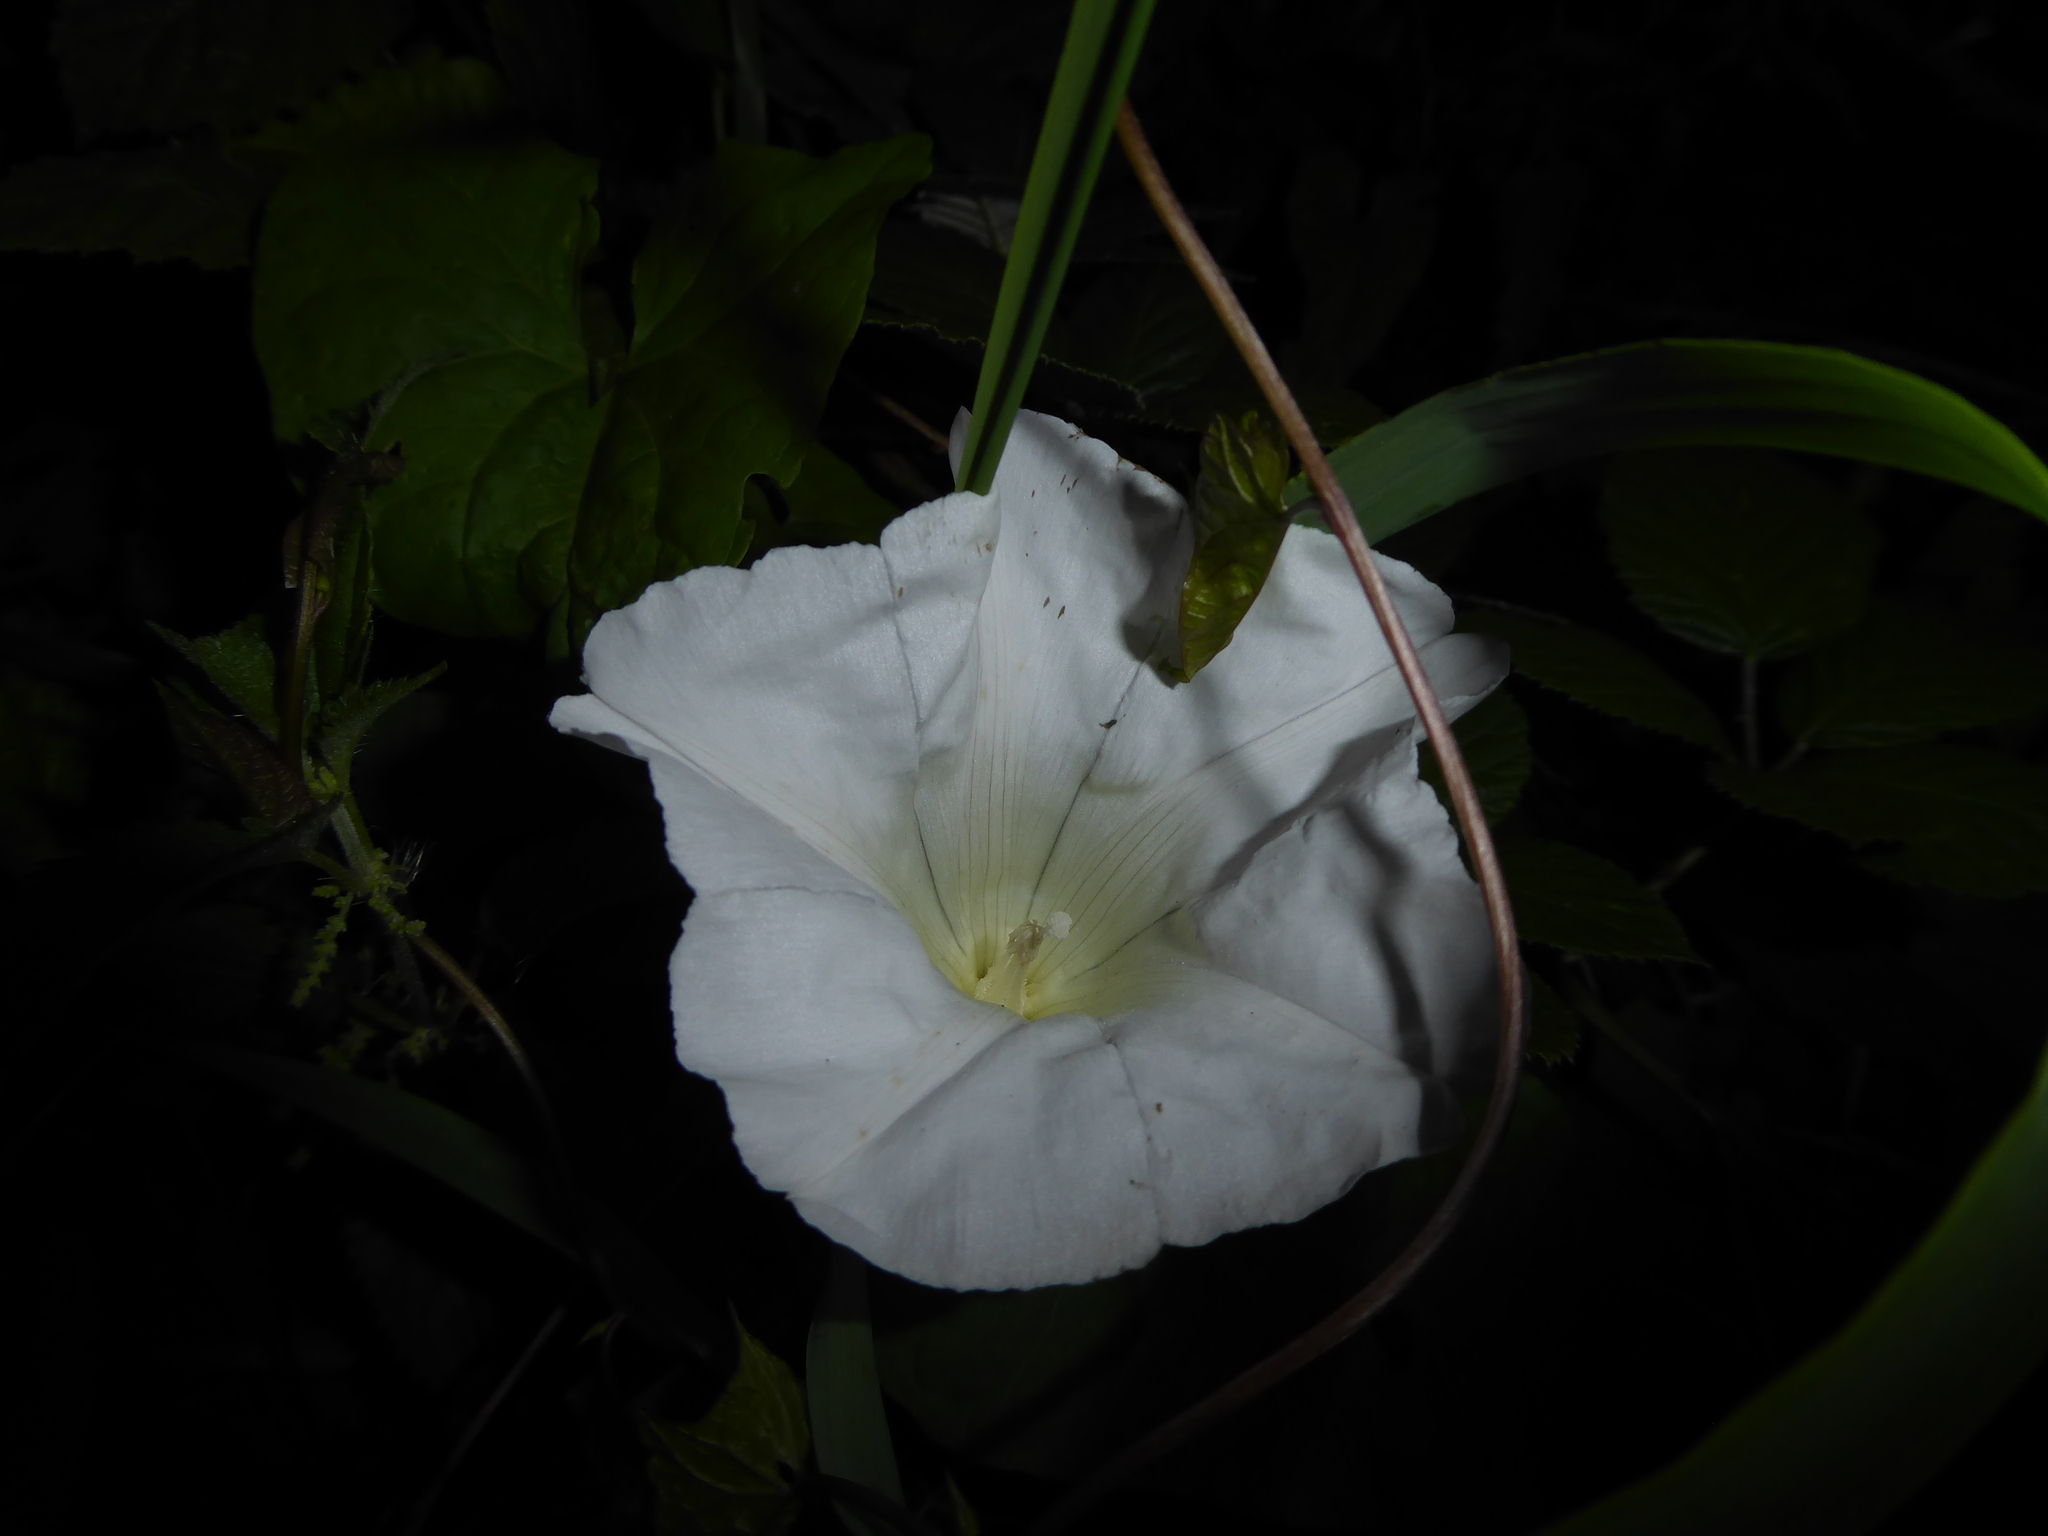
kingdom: Plantae
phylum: Tracheophyta
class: Magnoliopsida
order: Solanales
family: Convolvulaceae
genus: Calystegia
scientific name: Calystegia silvatica
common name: Large bindweed
